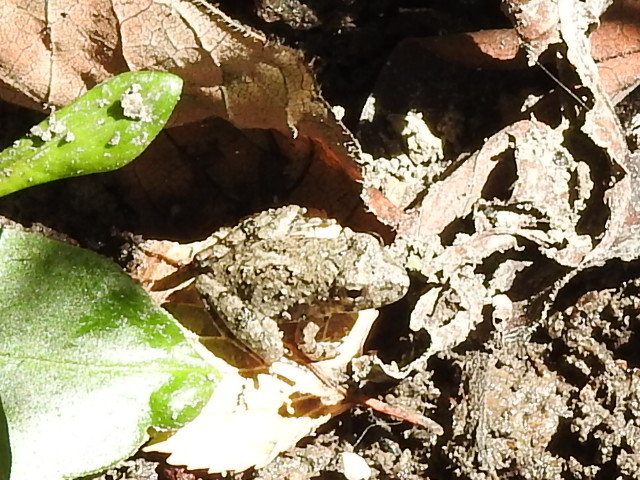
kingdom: Animalia
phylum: Chordata
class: Amphibia
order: Anura
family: Hylidae
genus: Acris
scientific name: Acris blanchardi
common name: Blanchard's cricket frog
